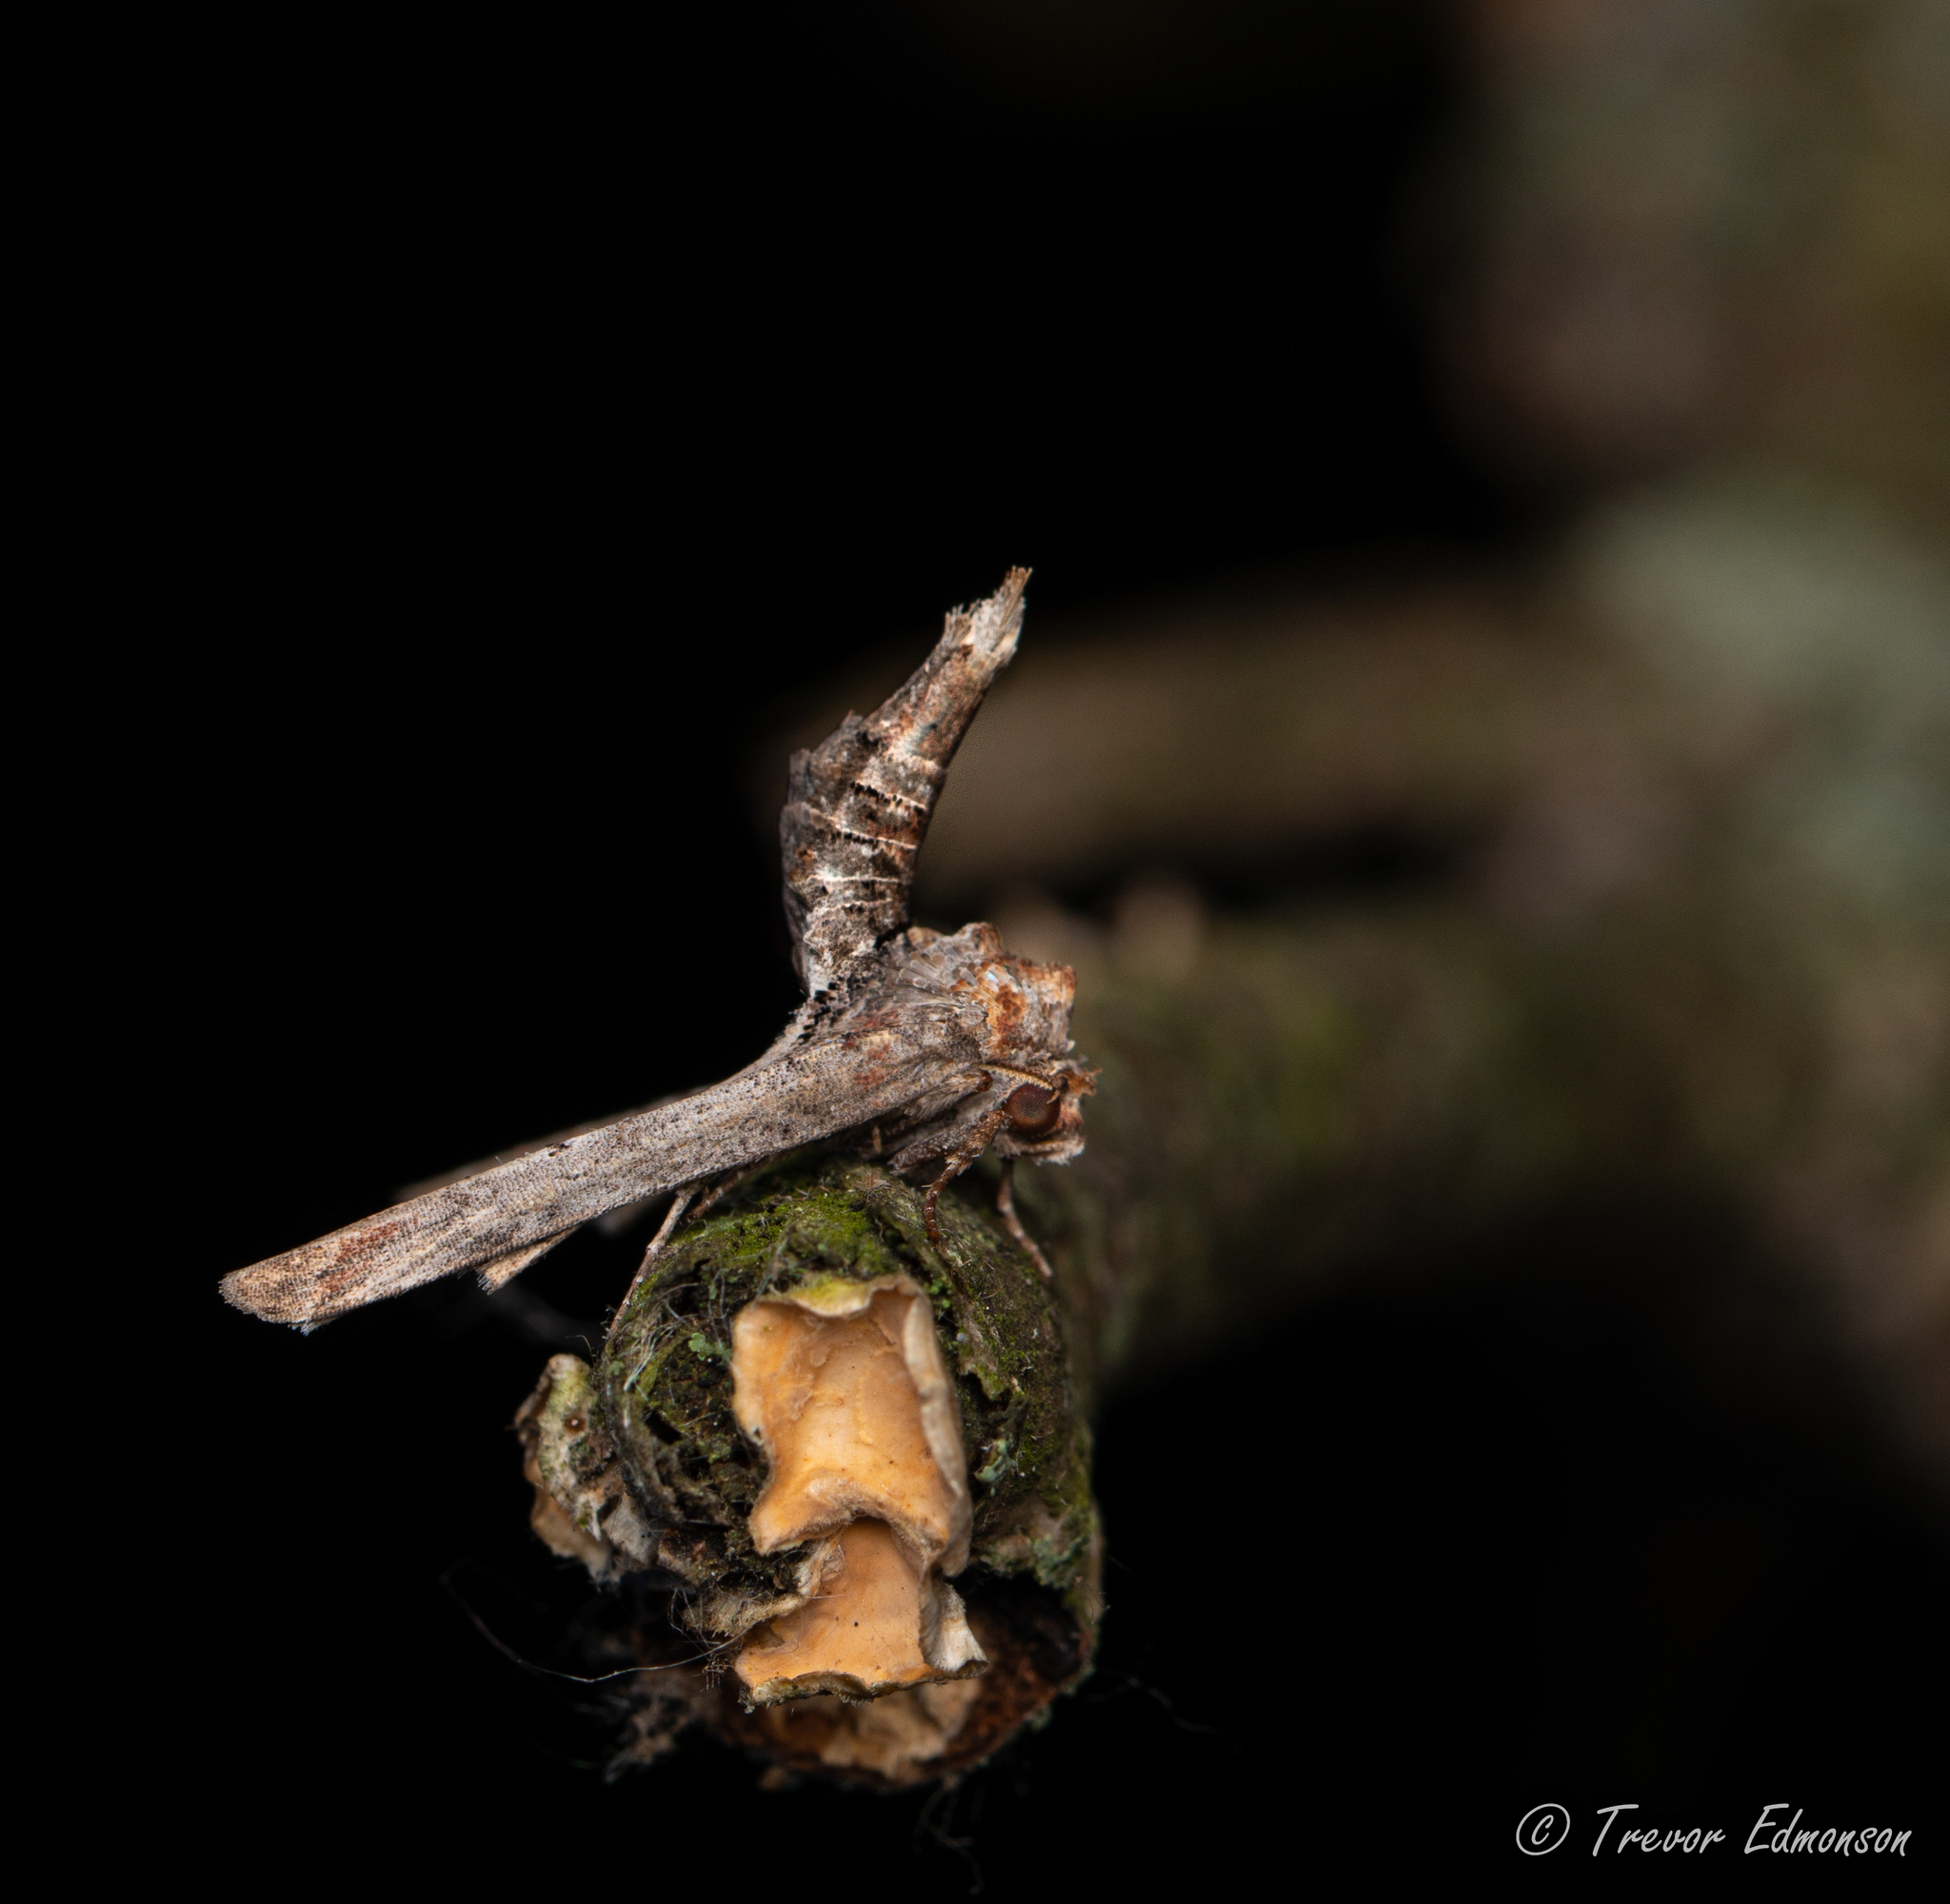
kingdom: Animalia
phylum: Arthropoda
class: Insecta
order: Lepidoptera
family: Euteliidae
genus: Marathyssa
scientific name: Marathyssa inficita
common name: Dark marathyssa moth
